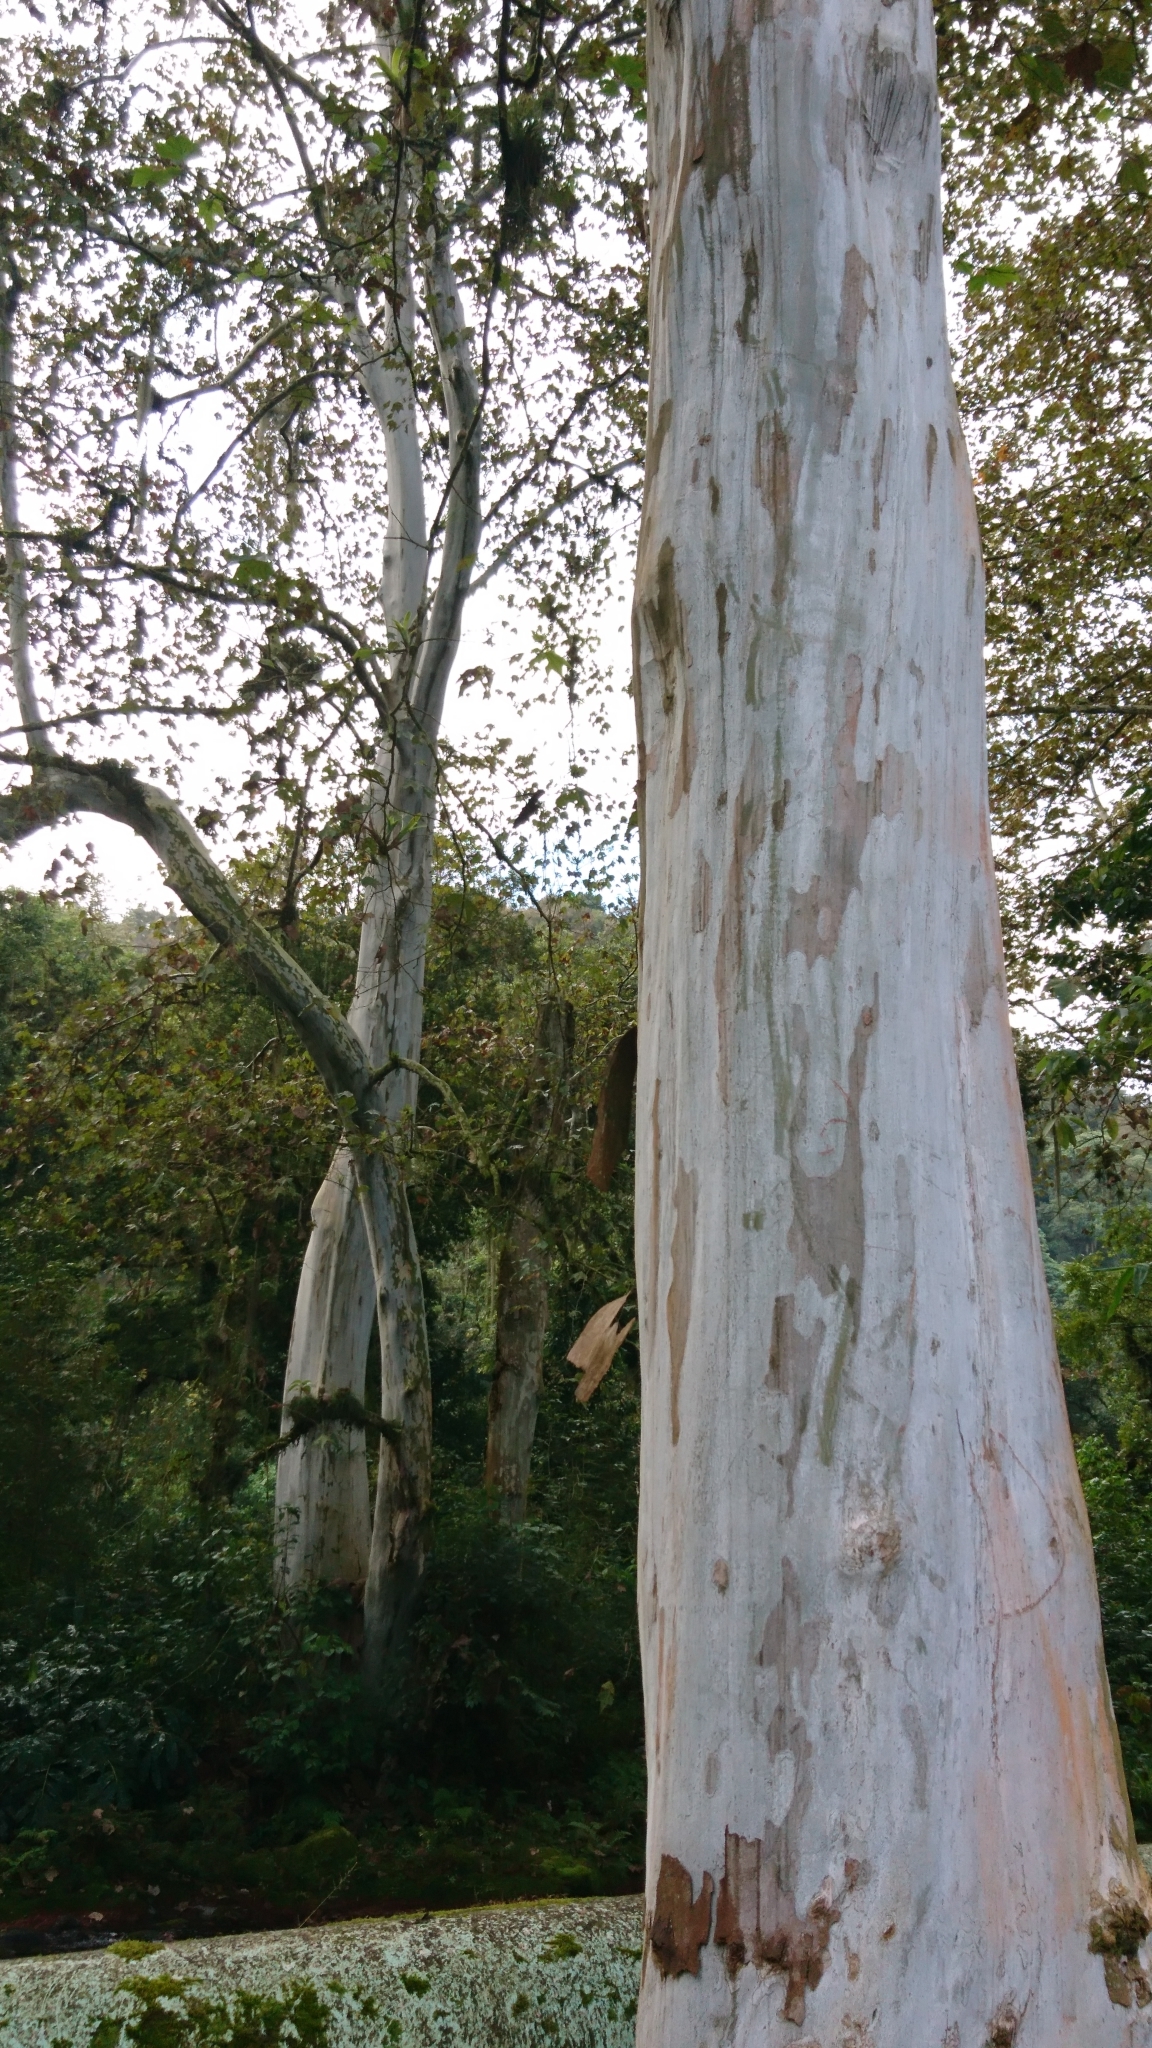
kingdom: Plantae
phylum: Tracheophyta
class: Magnoliopsida
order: Proteales
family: Platanaceae
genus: Platanus
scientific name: Platanus mexicana
